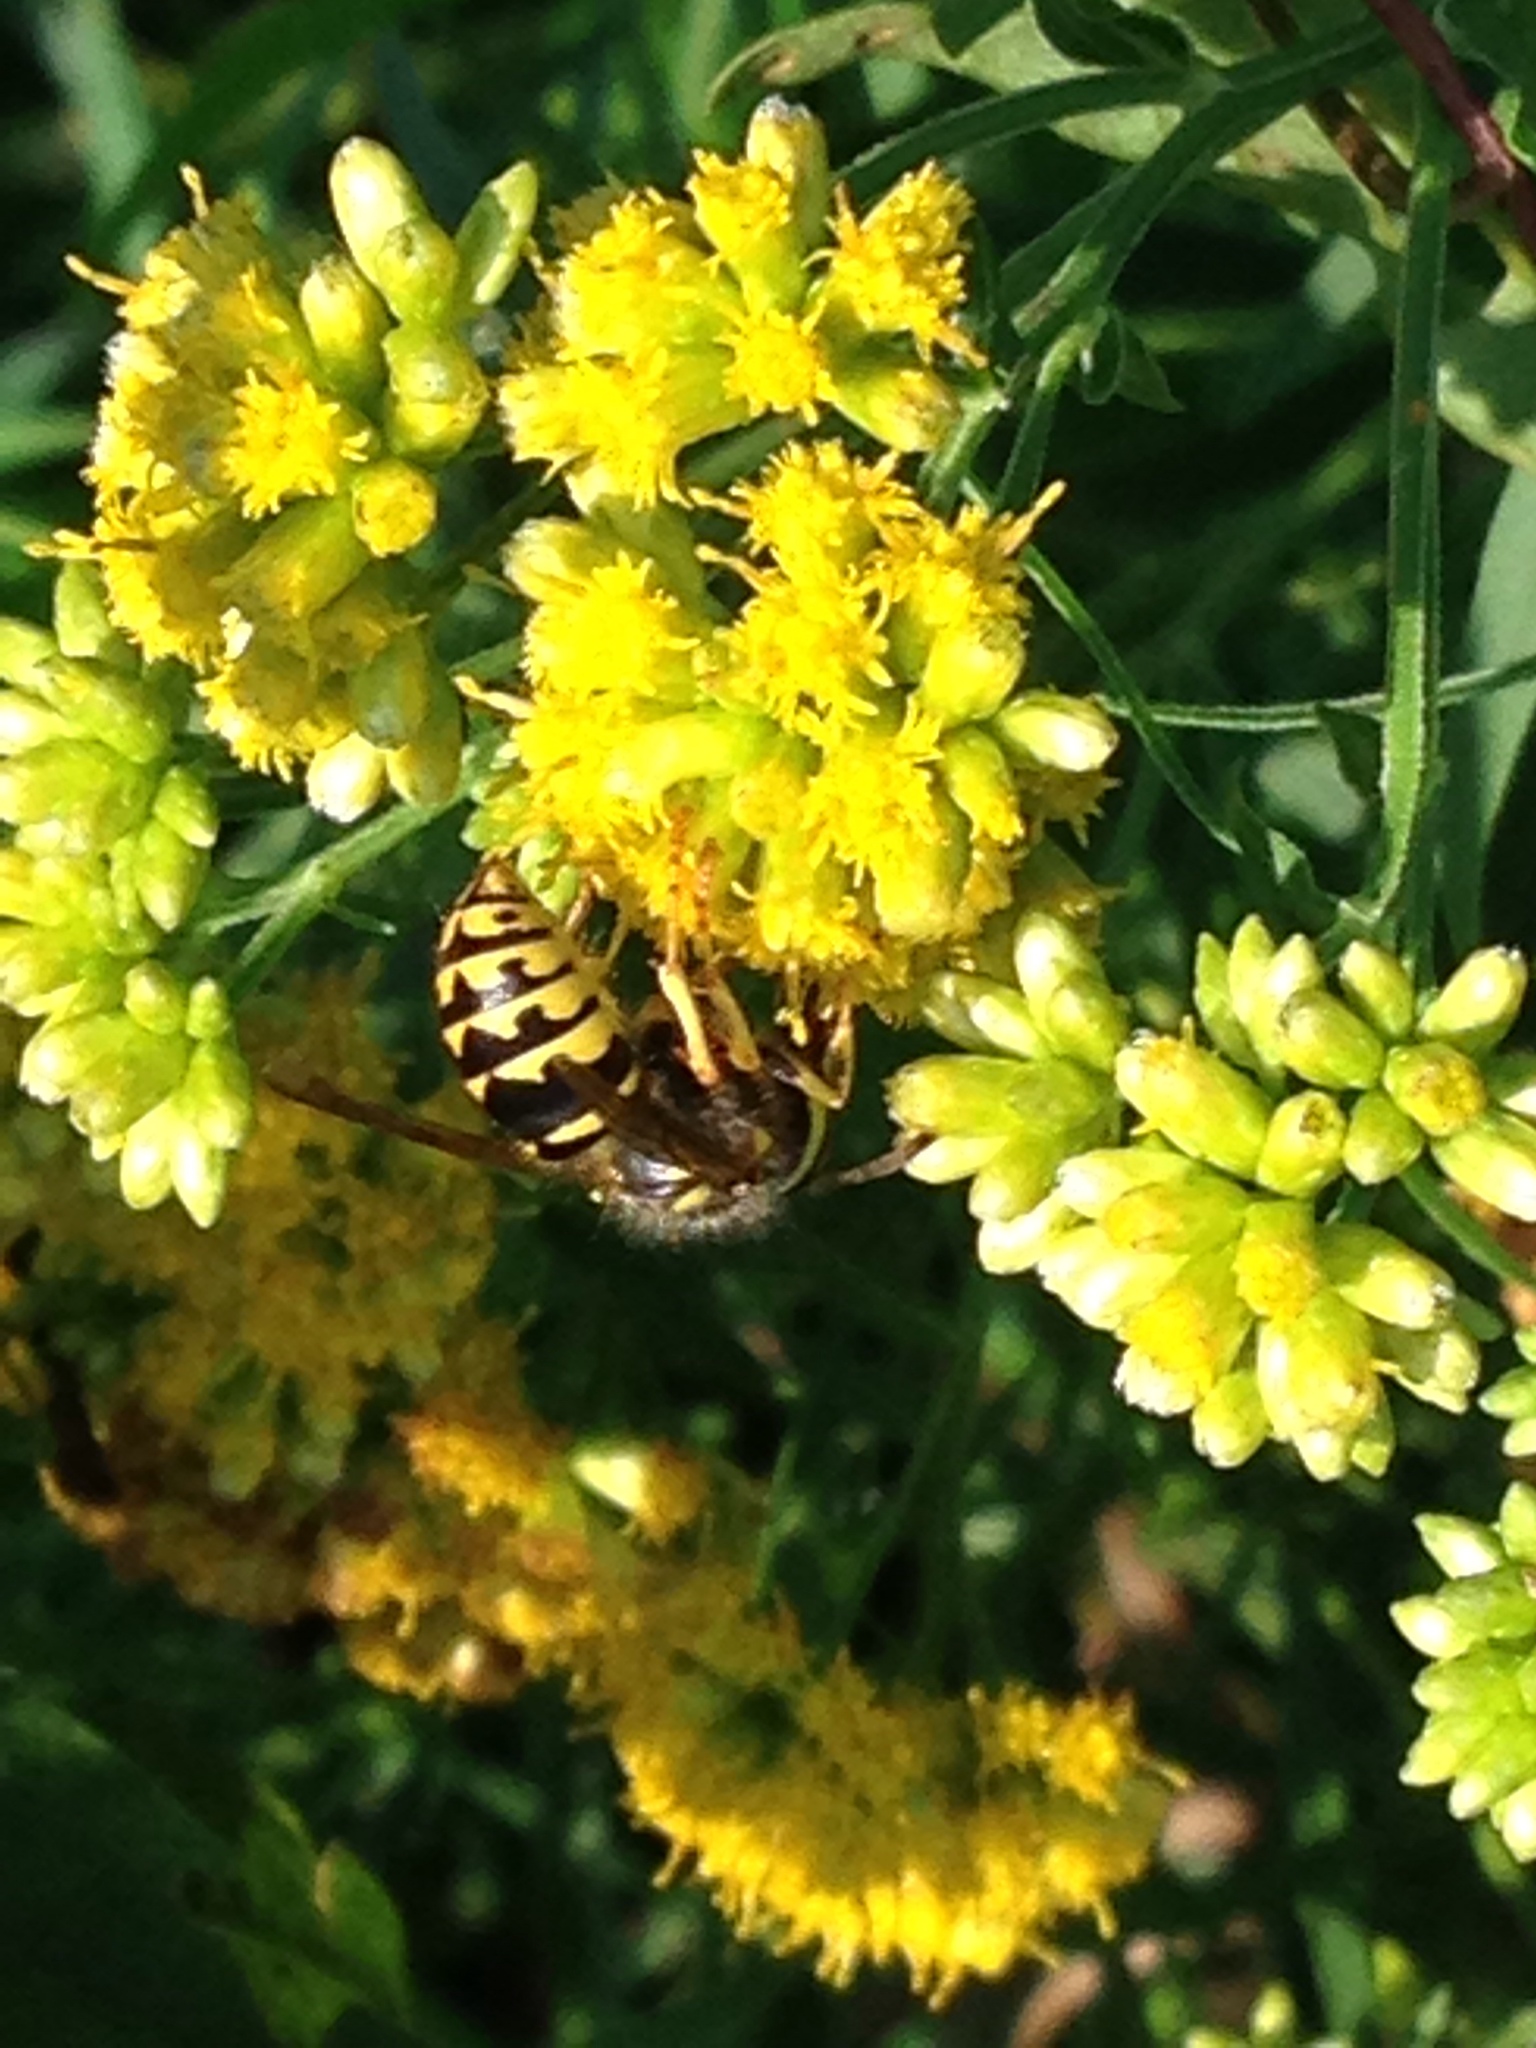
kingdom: Animalia
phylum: Arthropoda
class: Insecta
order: Hymenoptera
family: Vespidae
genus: Dolichovespula
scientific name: Dolichovespula arenaria
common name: Aerial yellowjacket
